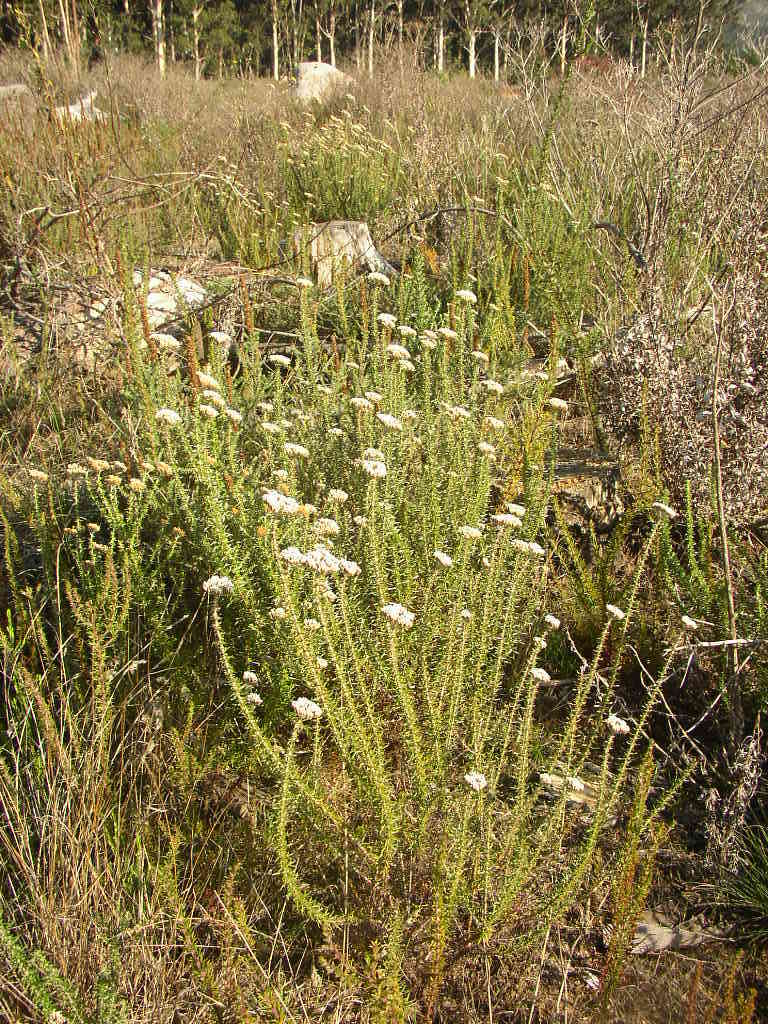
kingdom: Plantae
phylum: Tracheophyta
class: Magnoliopsida
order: Asterales
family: Asteraceae
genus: Metalasia
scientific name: Metalasia densa
